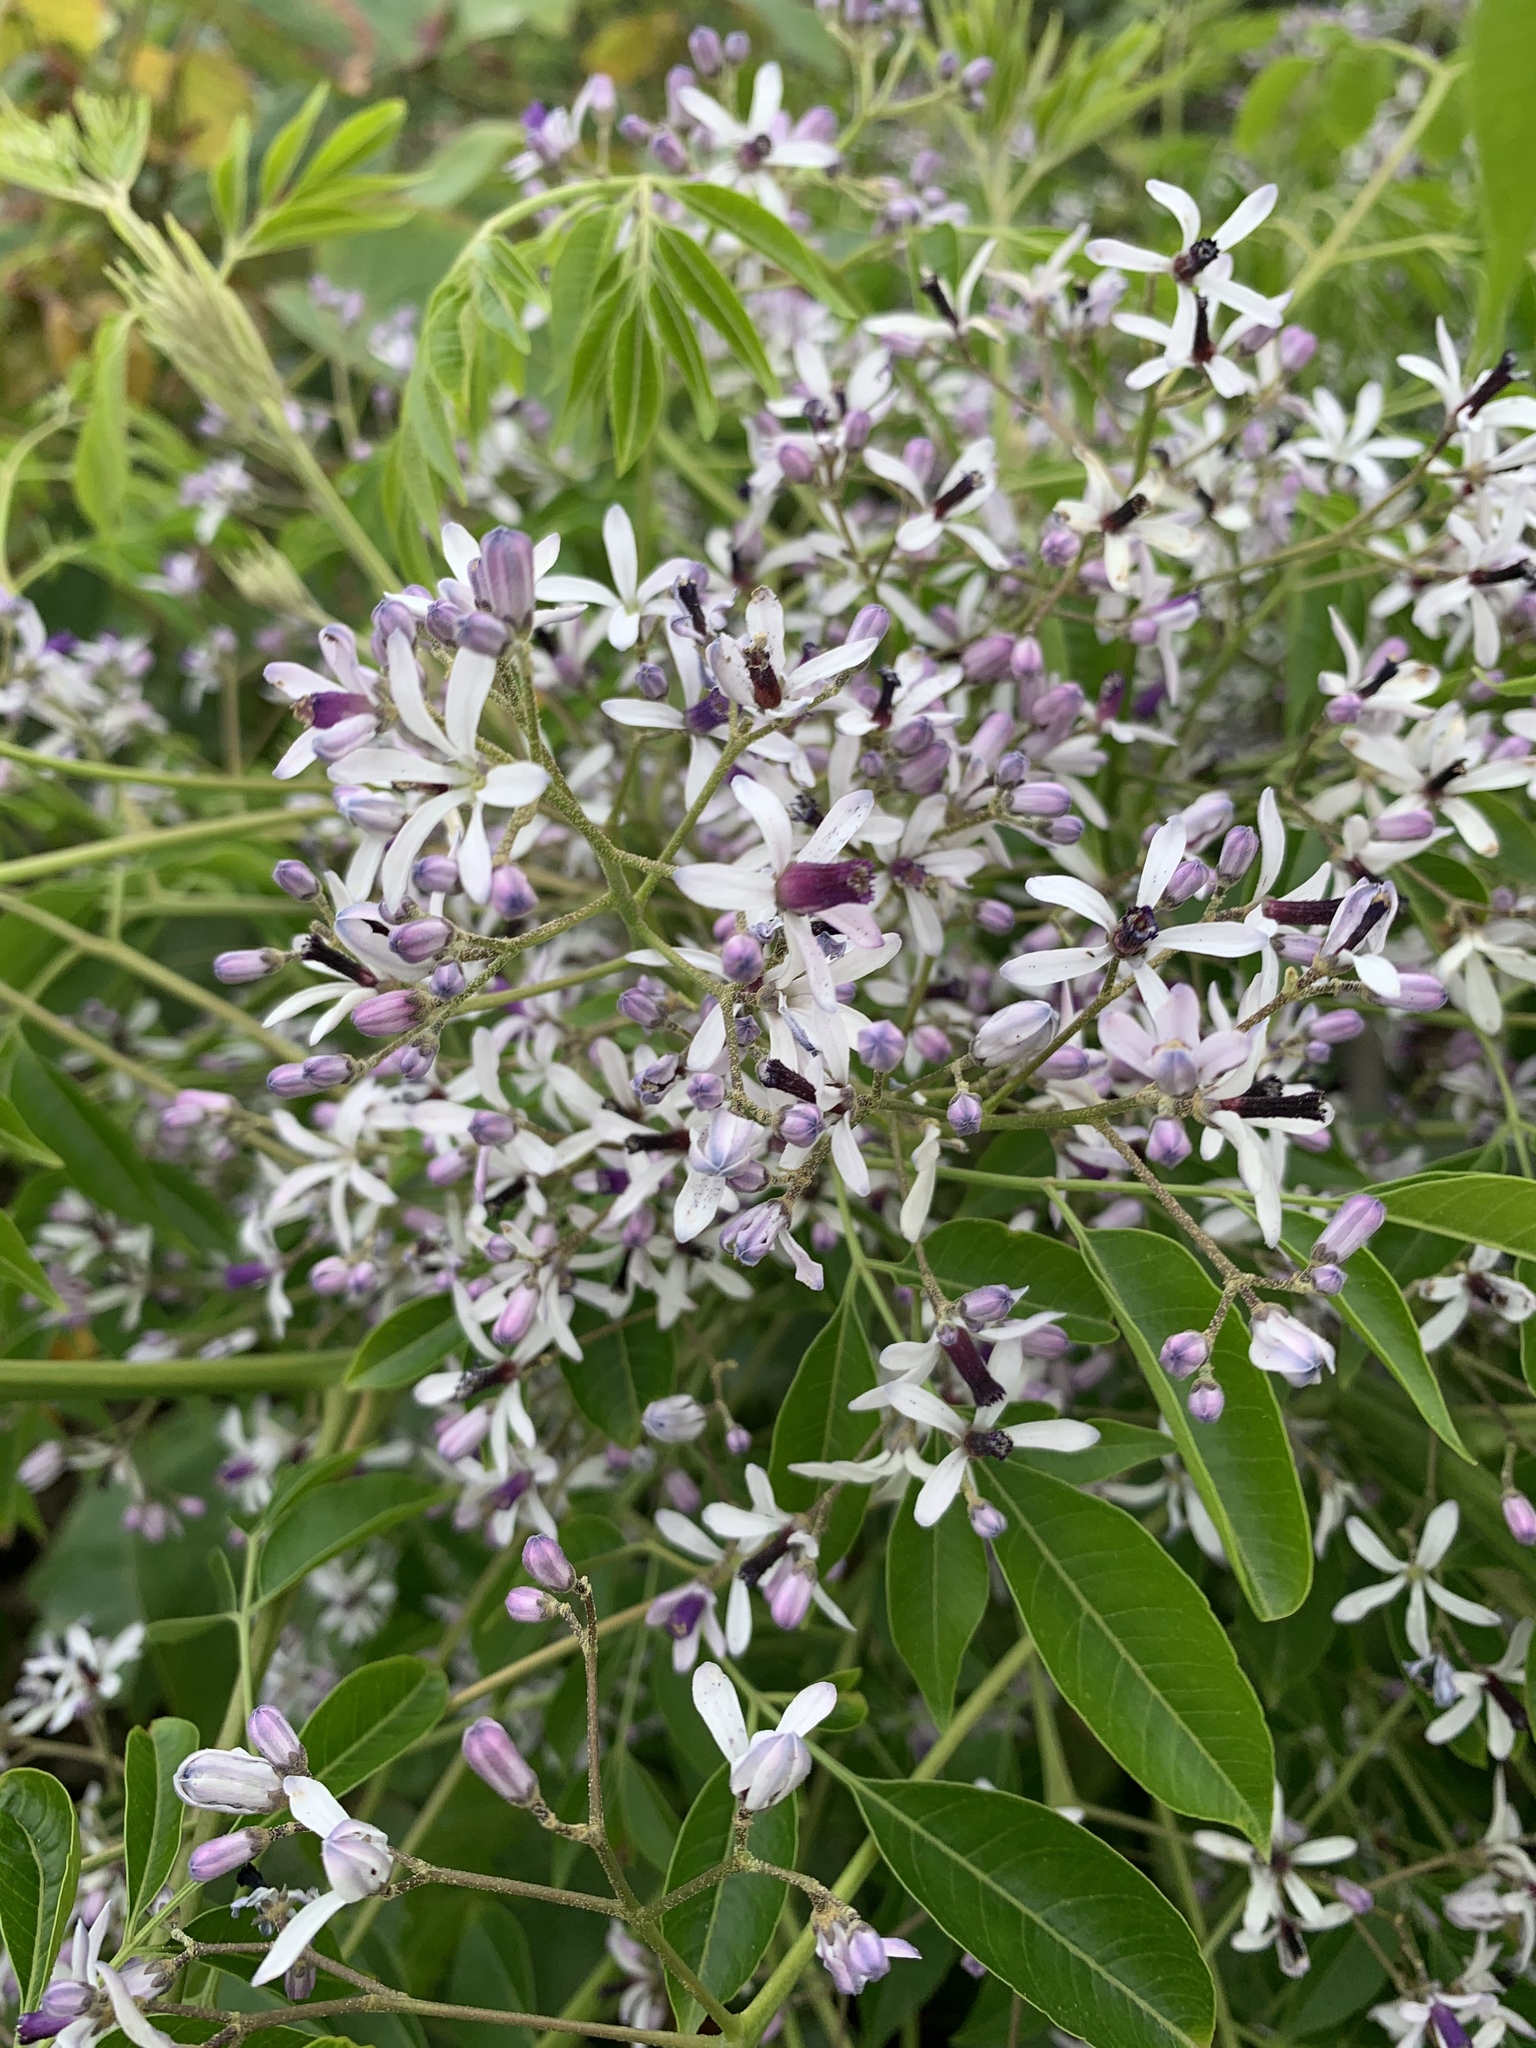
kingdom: Plantae
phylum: Tracheophyta
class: Magnoliopsida
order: Sapindales
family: Meliaceae
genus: Melia
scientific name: Melia azedarach
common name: Chinaberrytree
